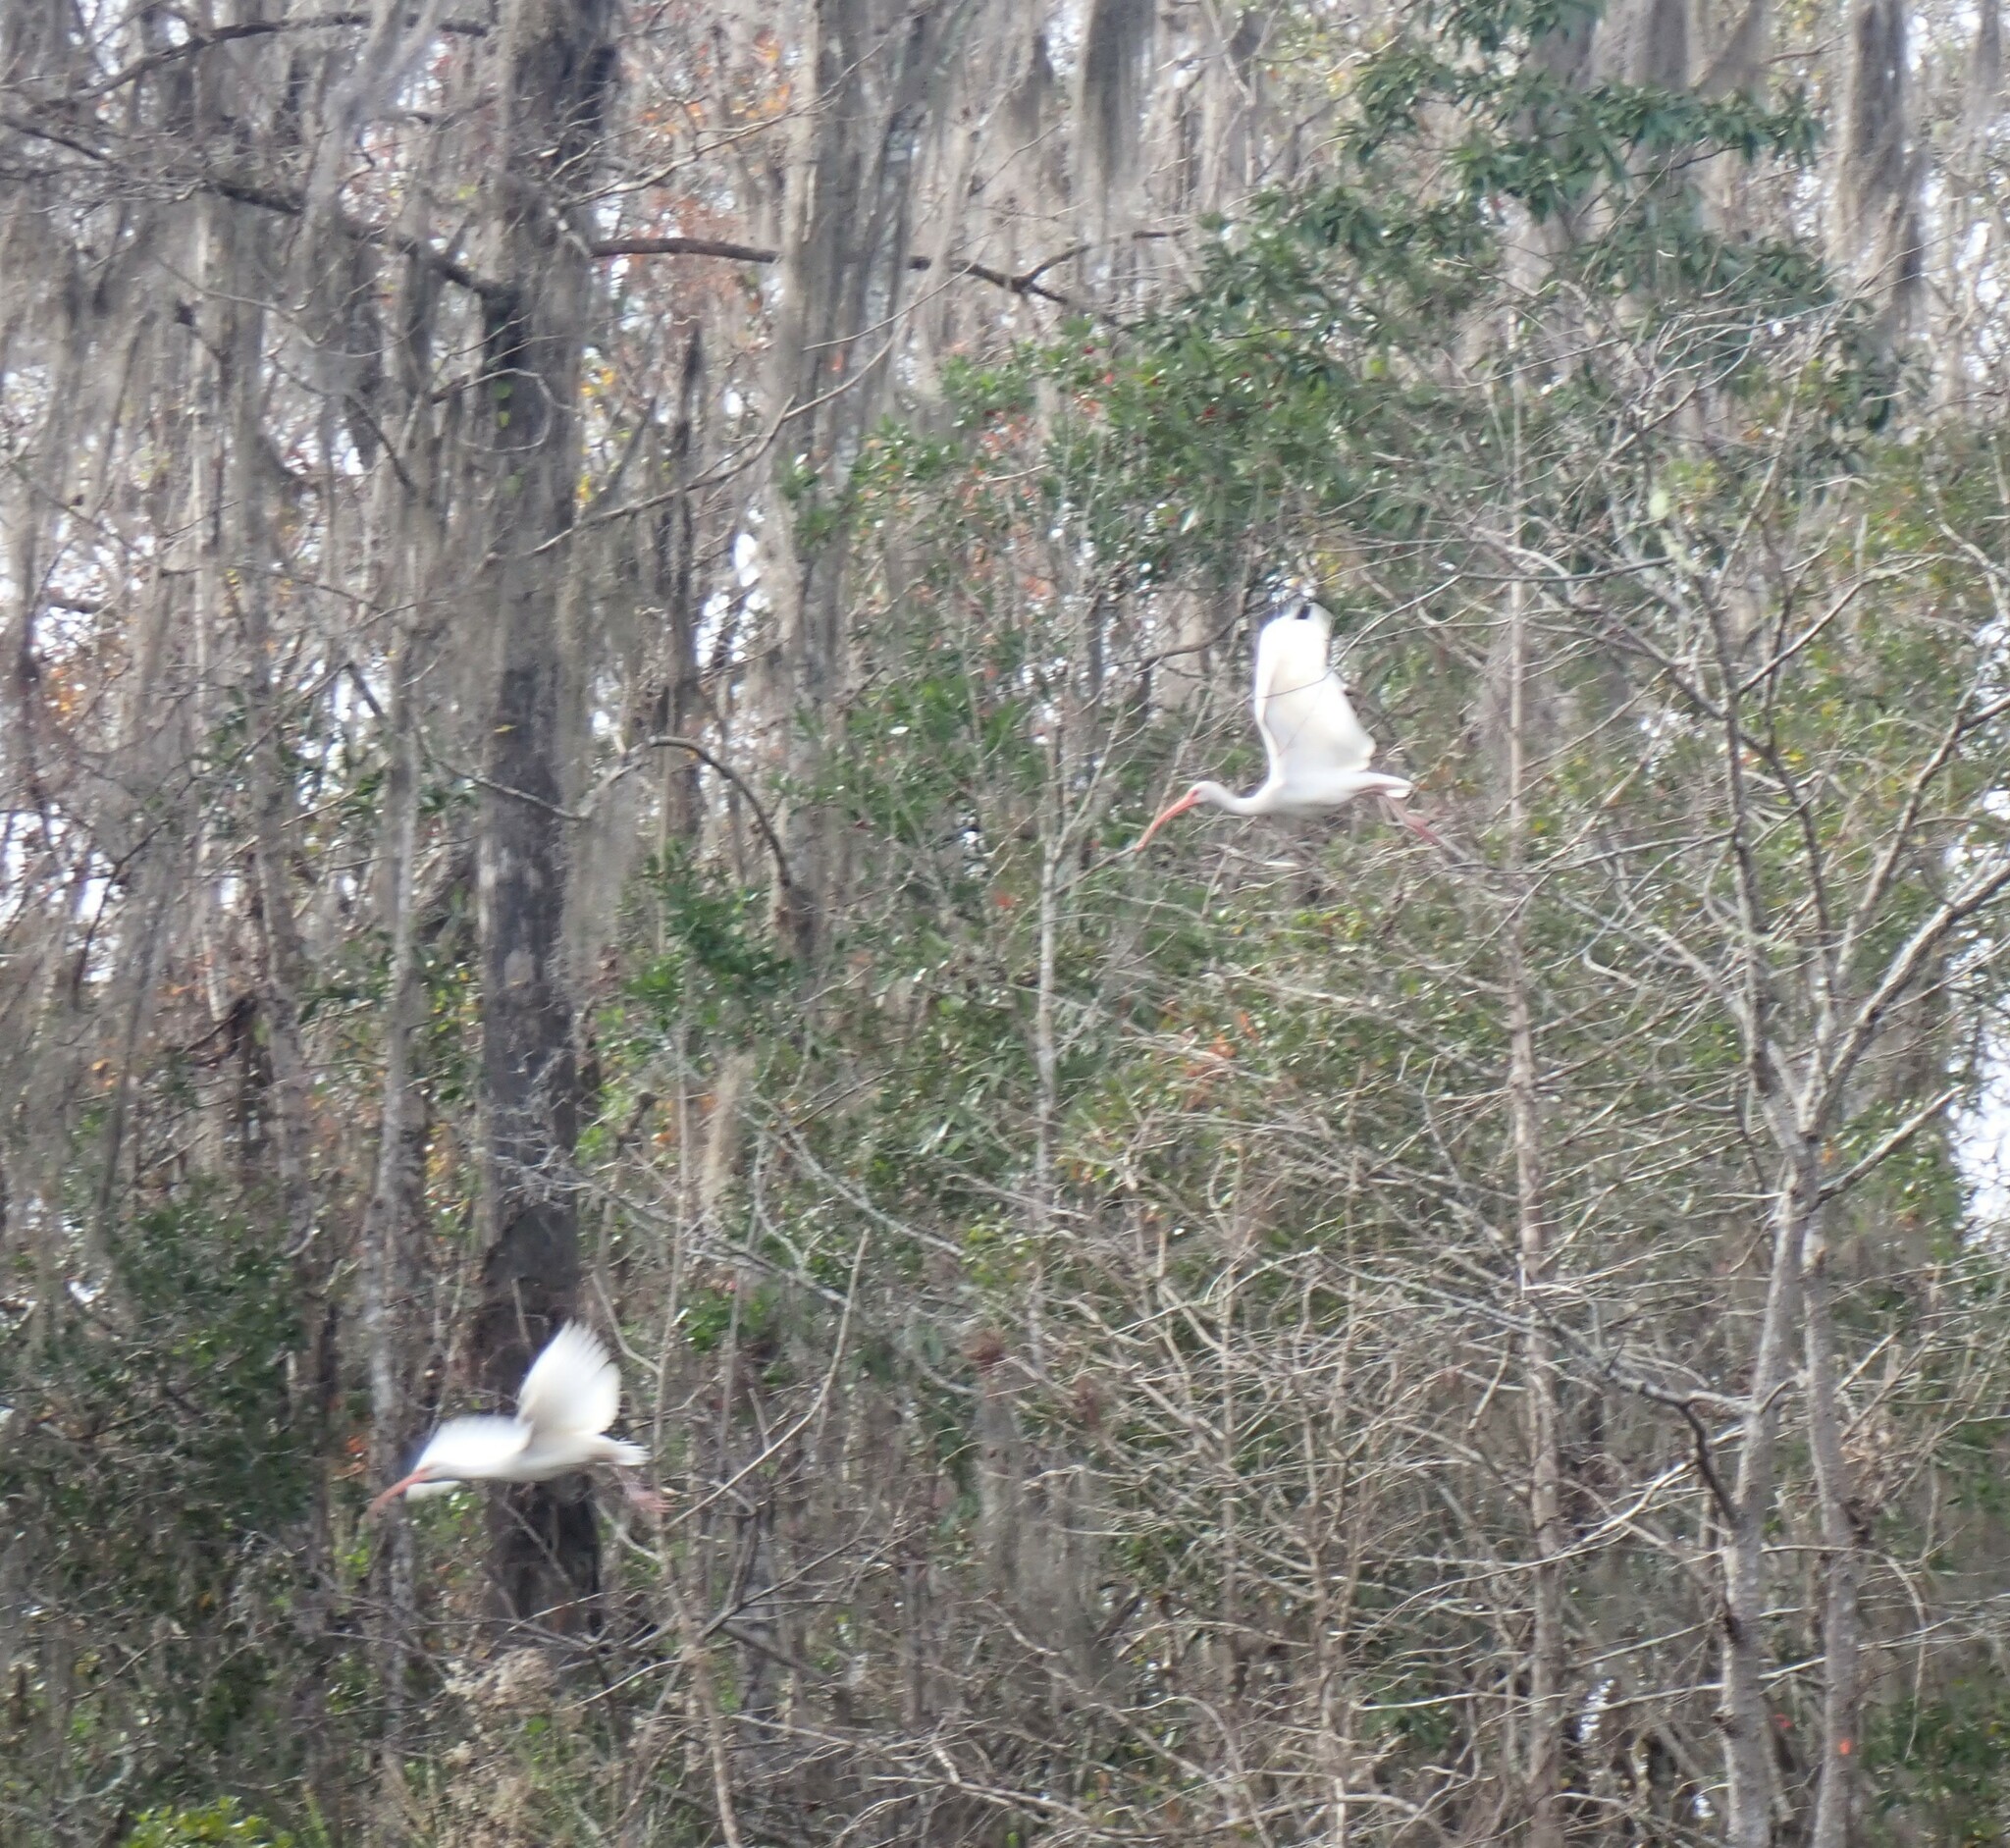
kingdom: Animalia
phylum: Chordata
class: Aves
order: Pelecaniformes
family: Threskiornithidae
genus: Eudocimus
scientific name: Eudocimus albus
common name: White ibis
